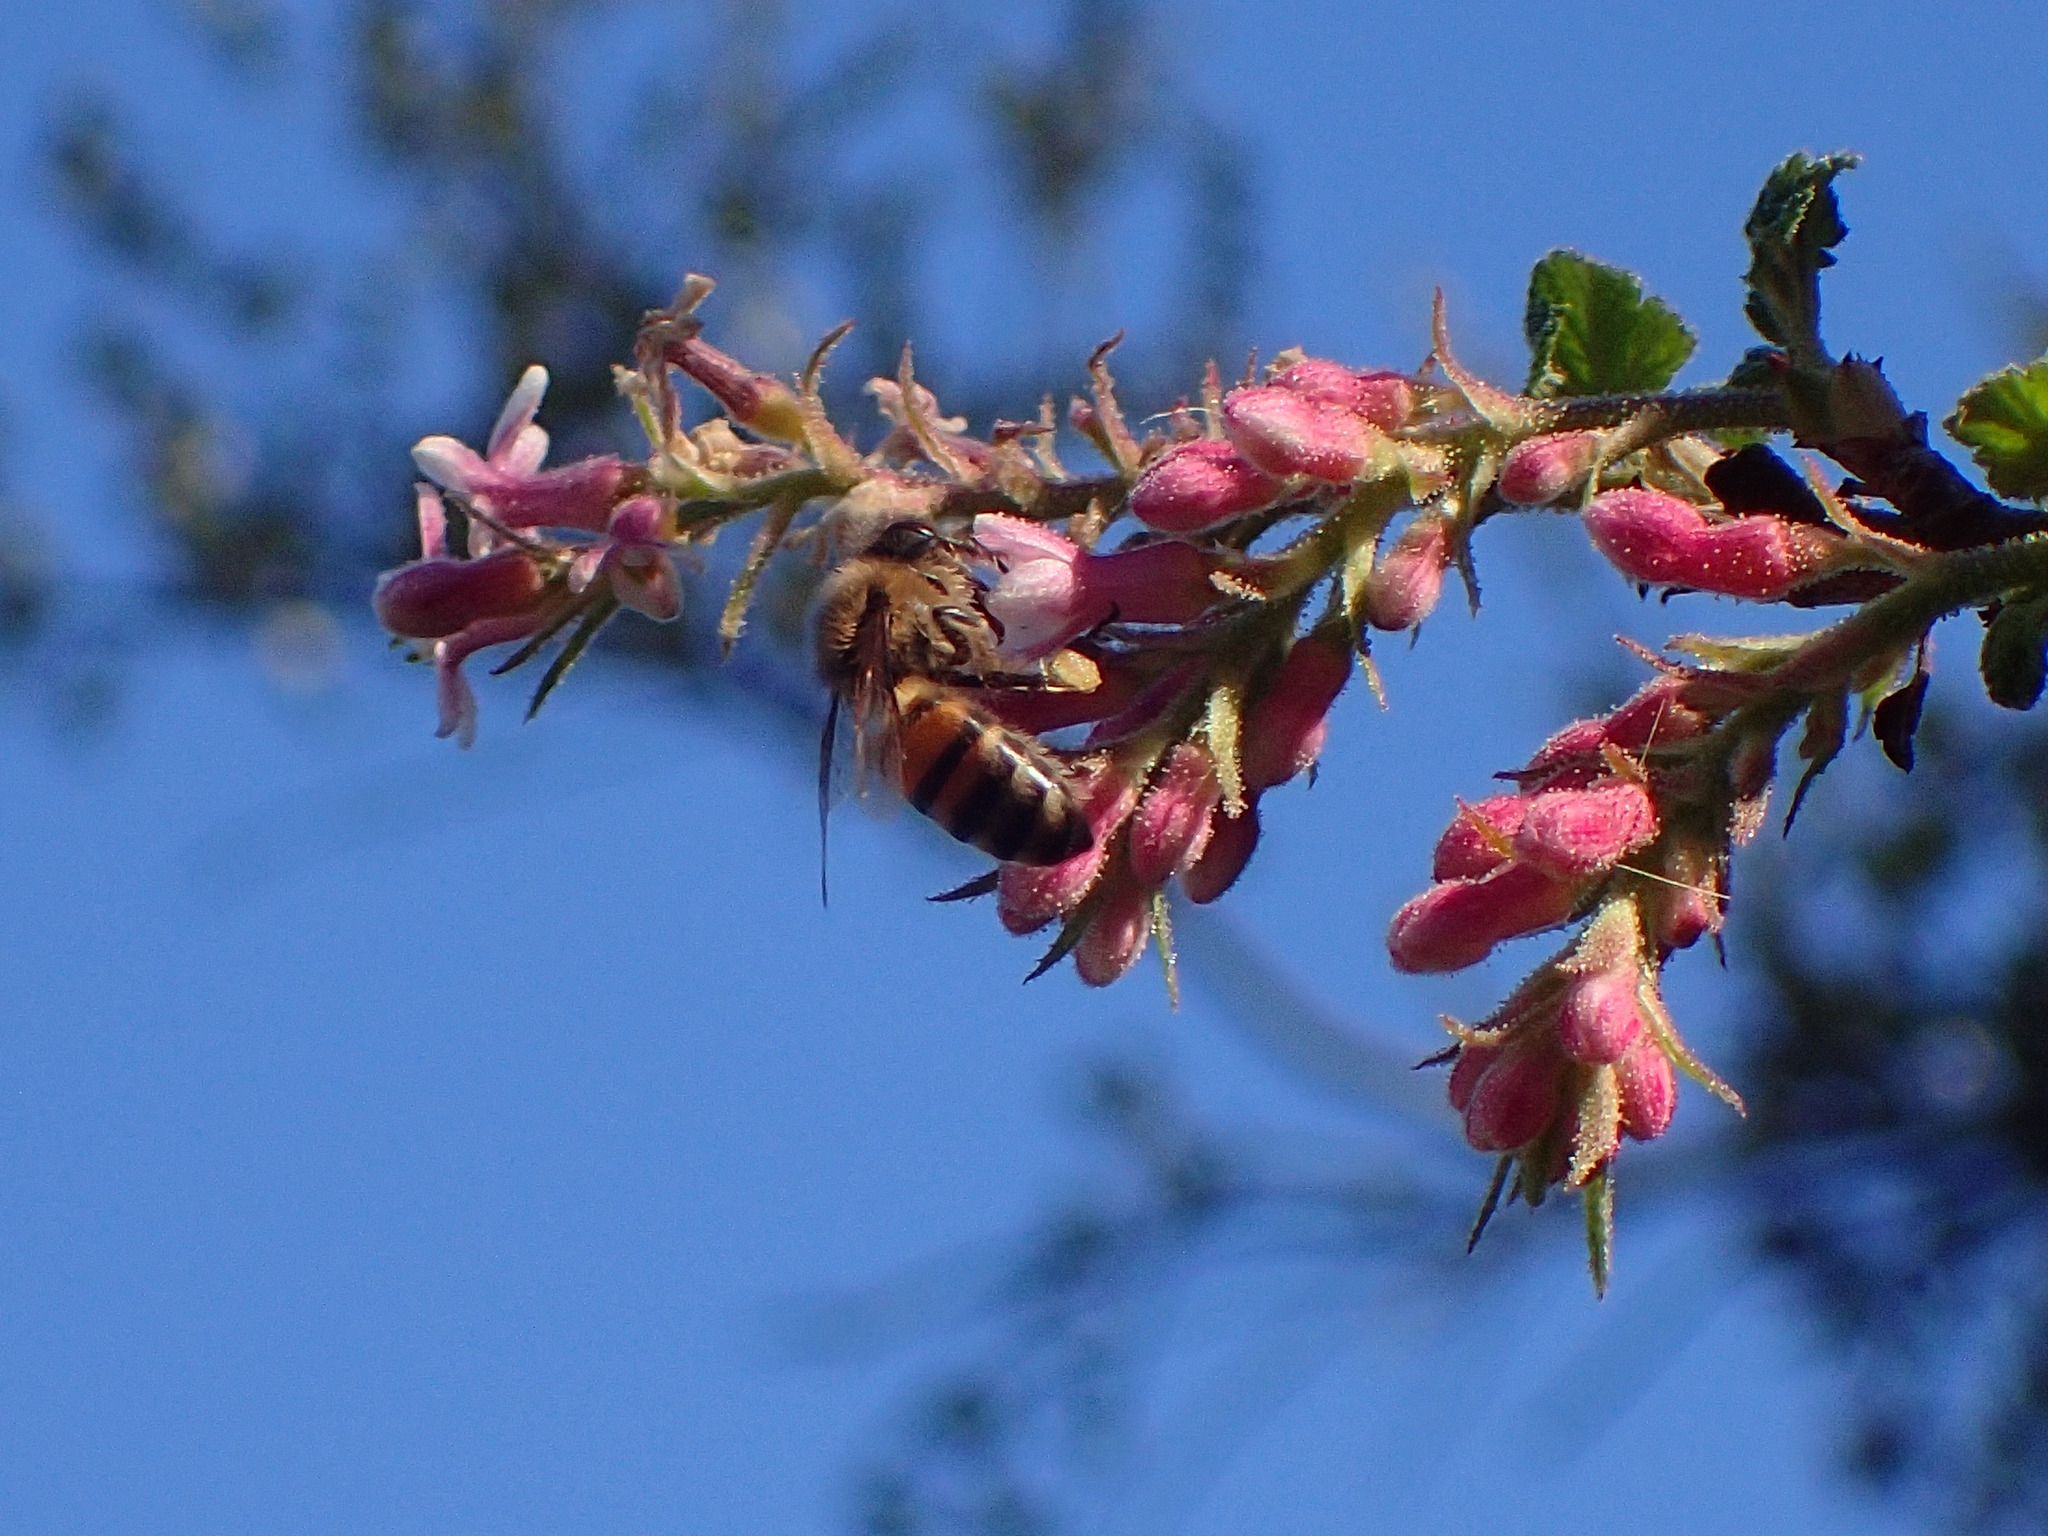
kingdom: Animalia
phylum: Arthropoda
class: Insecta
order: Hymenoptera
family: Apidae
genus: Apis
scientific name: Apis mellifera
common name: Honey bee
